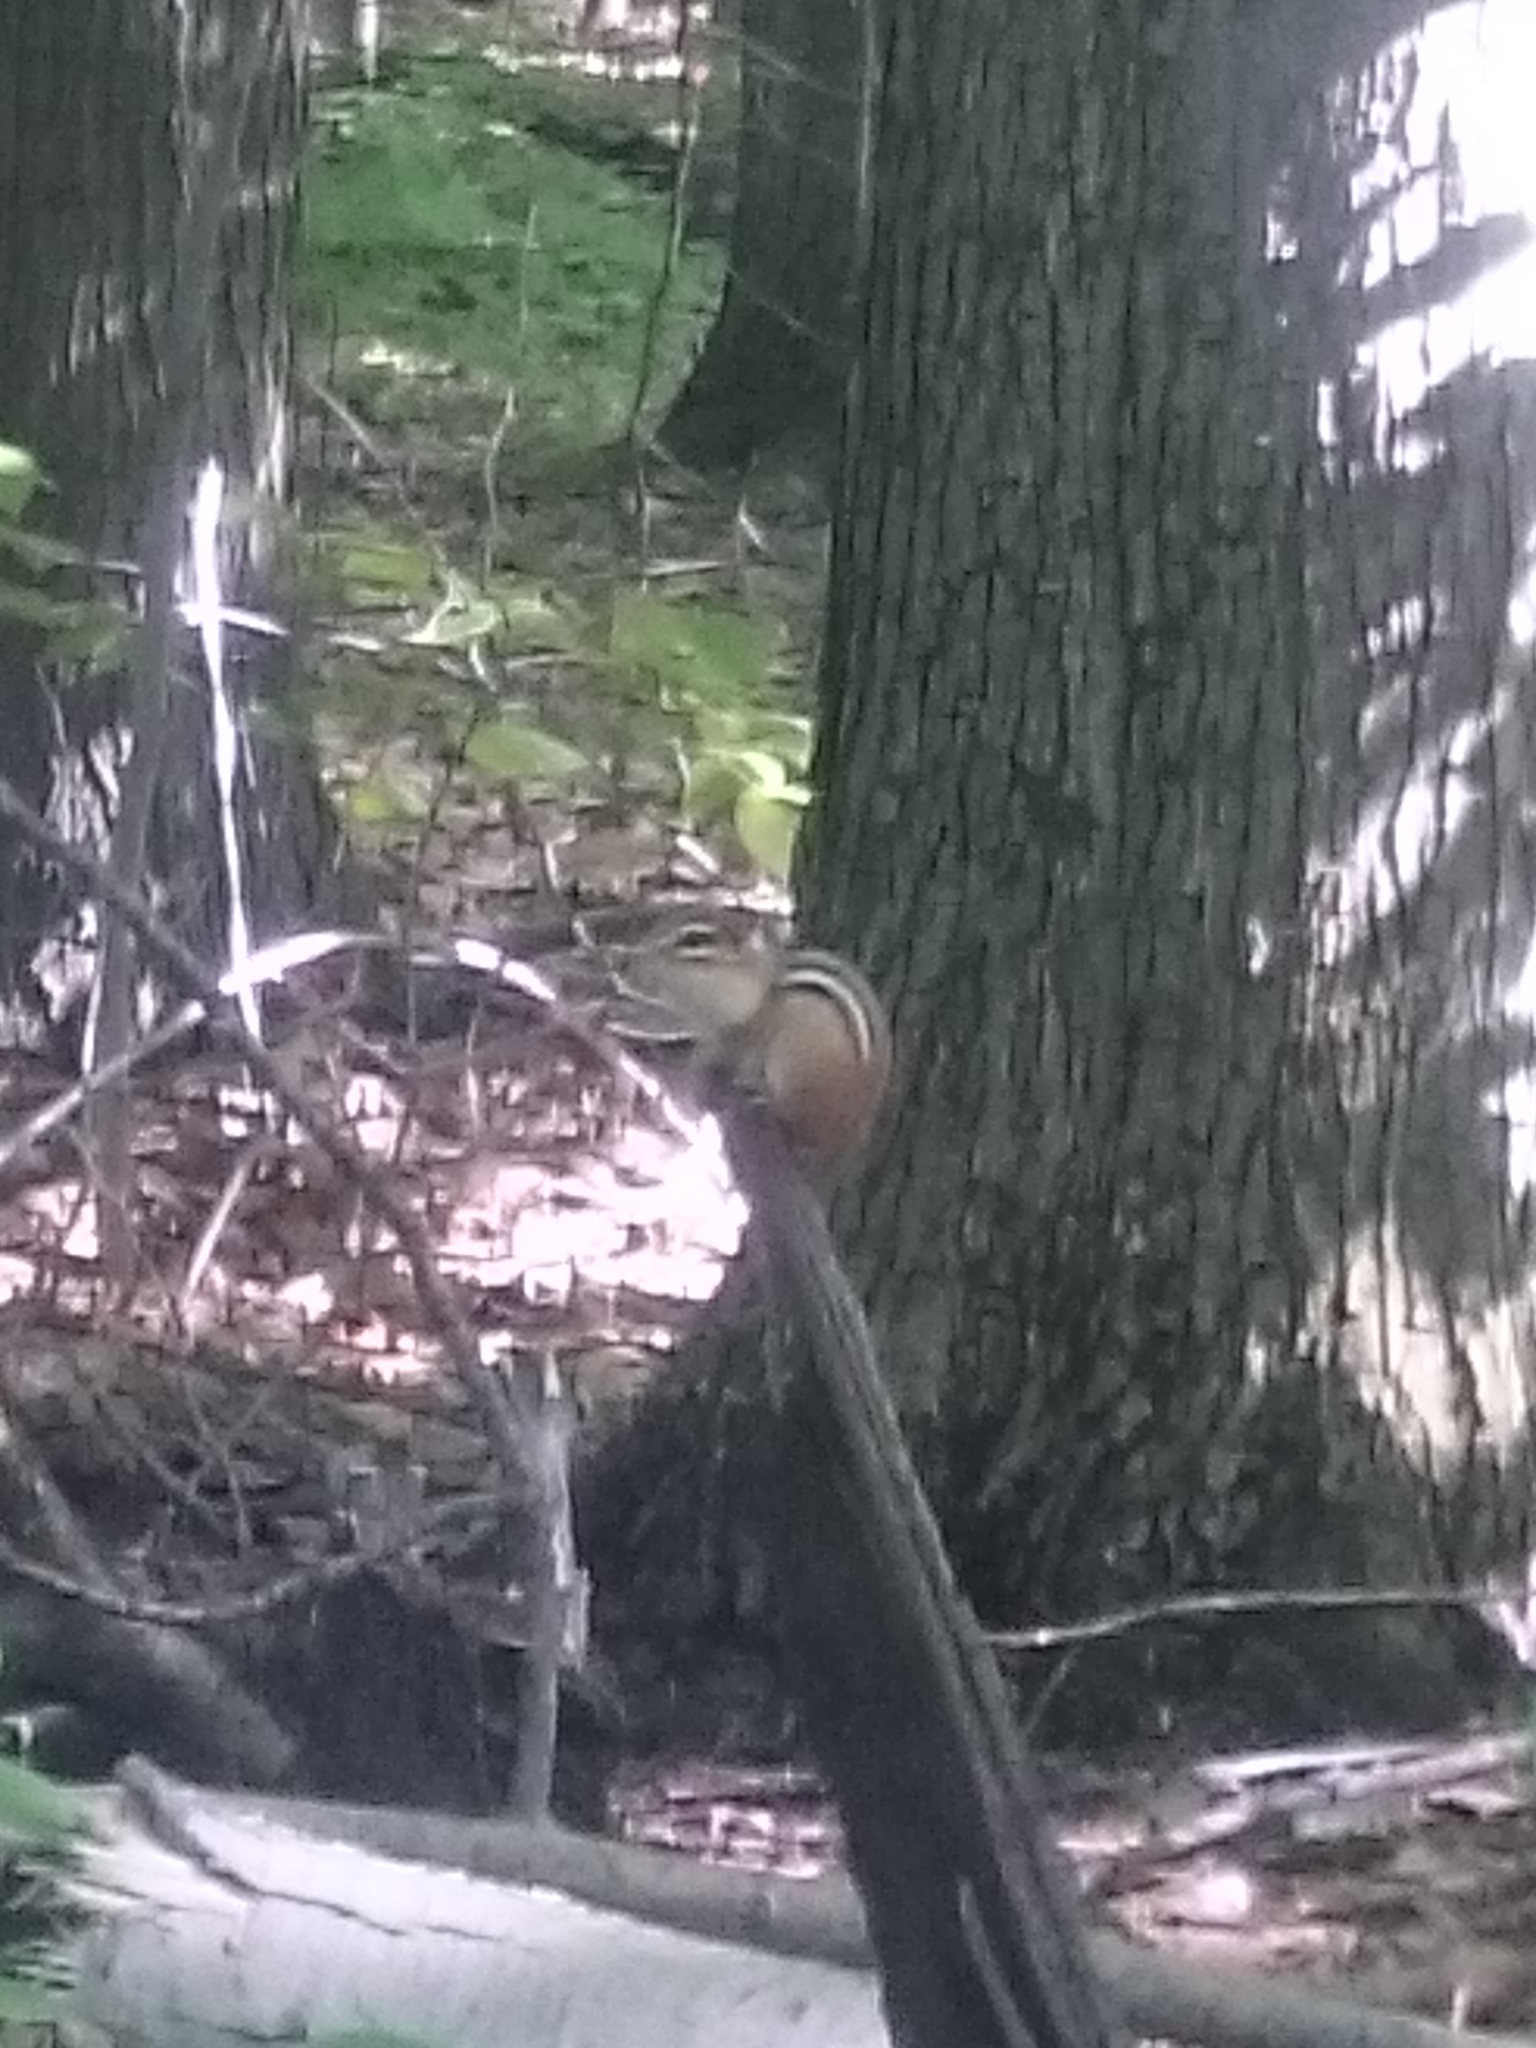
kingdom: Animalia
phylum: Chordata
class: Mammalia
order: Rodentia
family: Sciuridae
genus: Tamias
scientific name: Tamias striatus
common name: Eastern chipmunk
